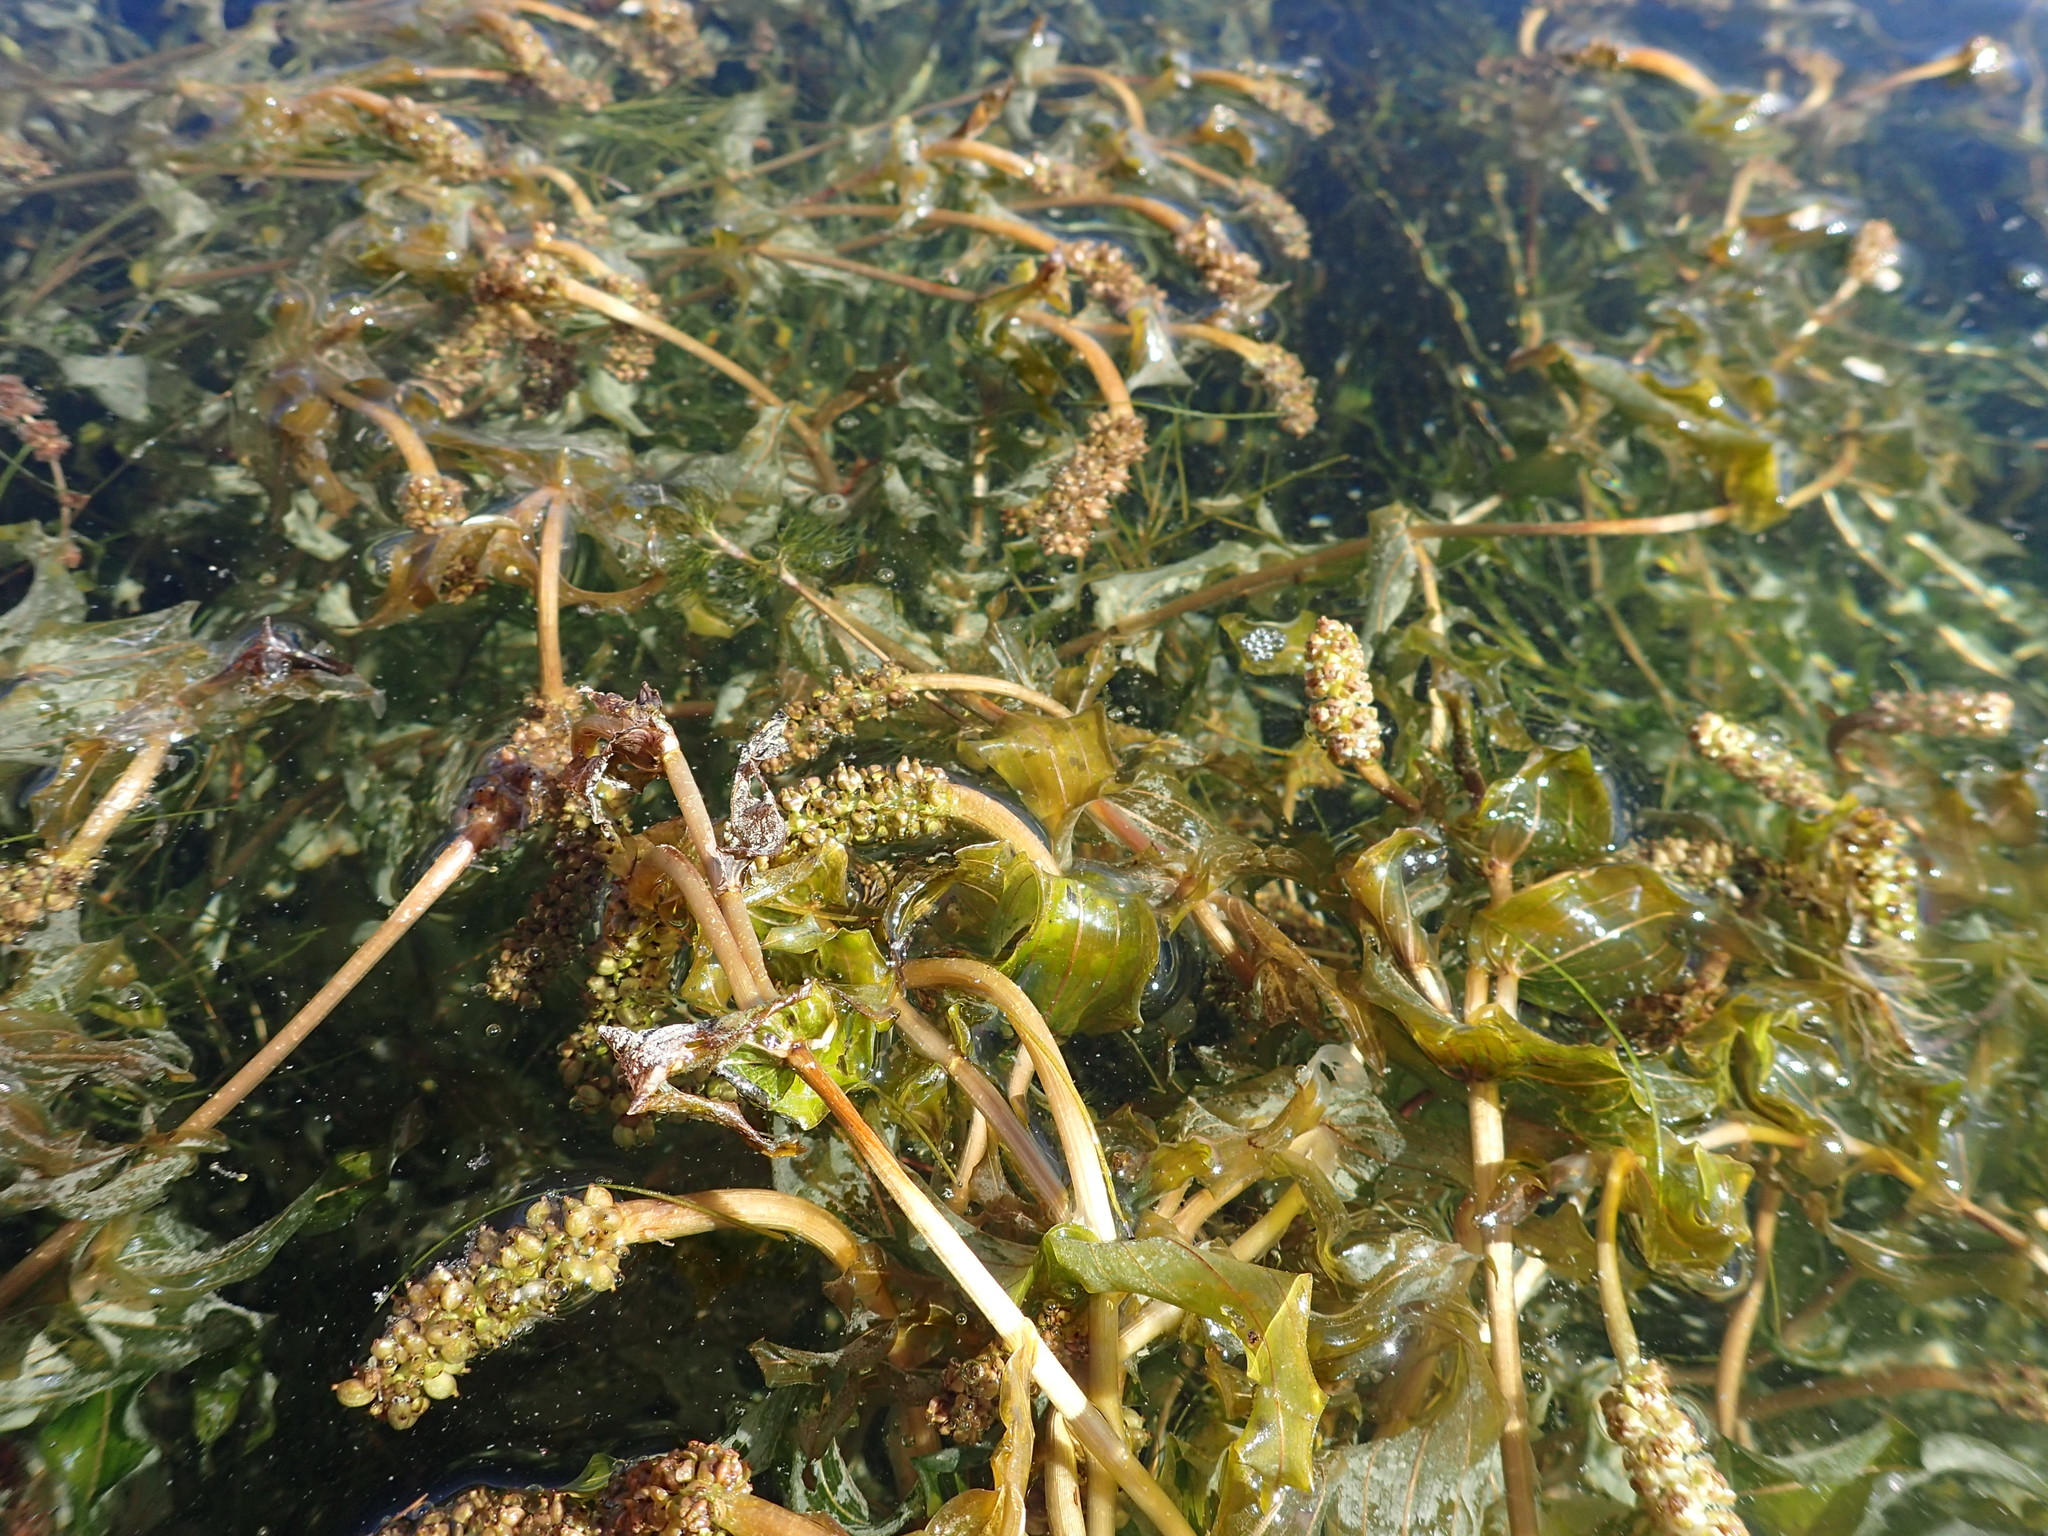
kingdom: Plantae
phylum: Tracheophyta
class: Liliopsida
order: Alismatales
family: Potamogetonaceae
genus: Potamogeton
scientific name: Potamogeton richardsonii
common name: Richardson's pondweed
